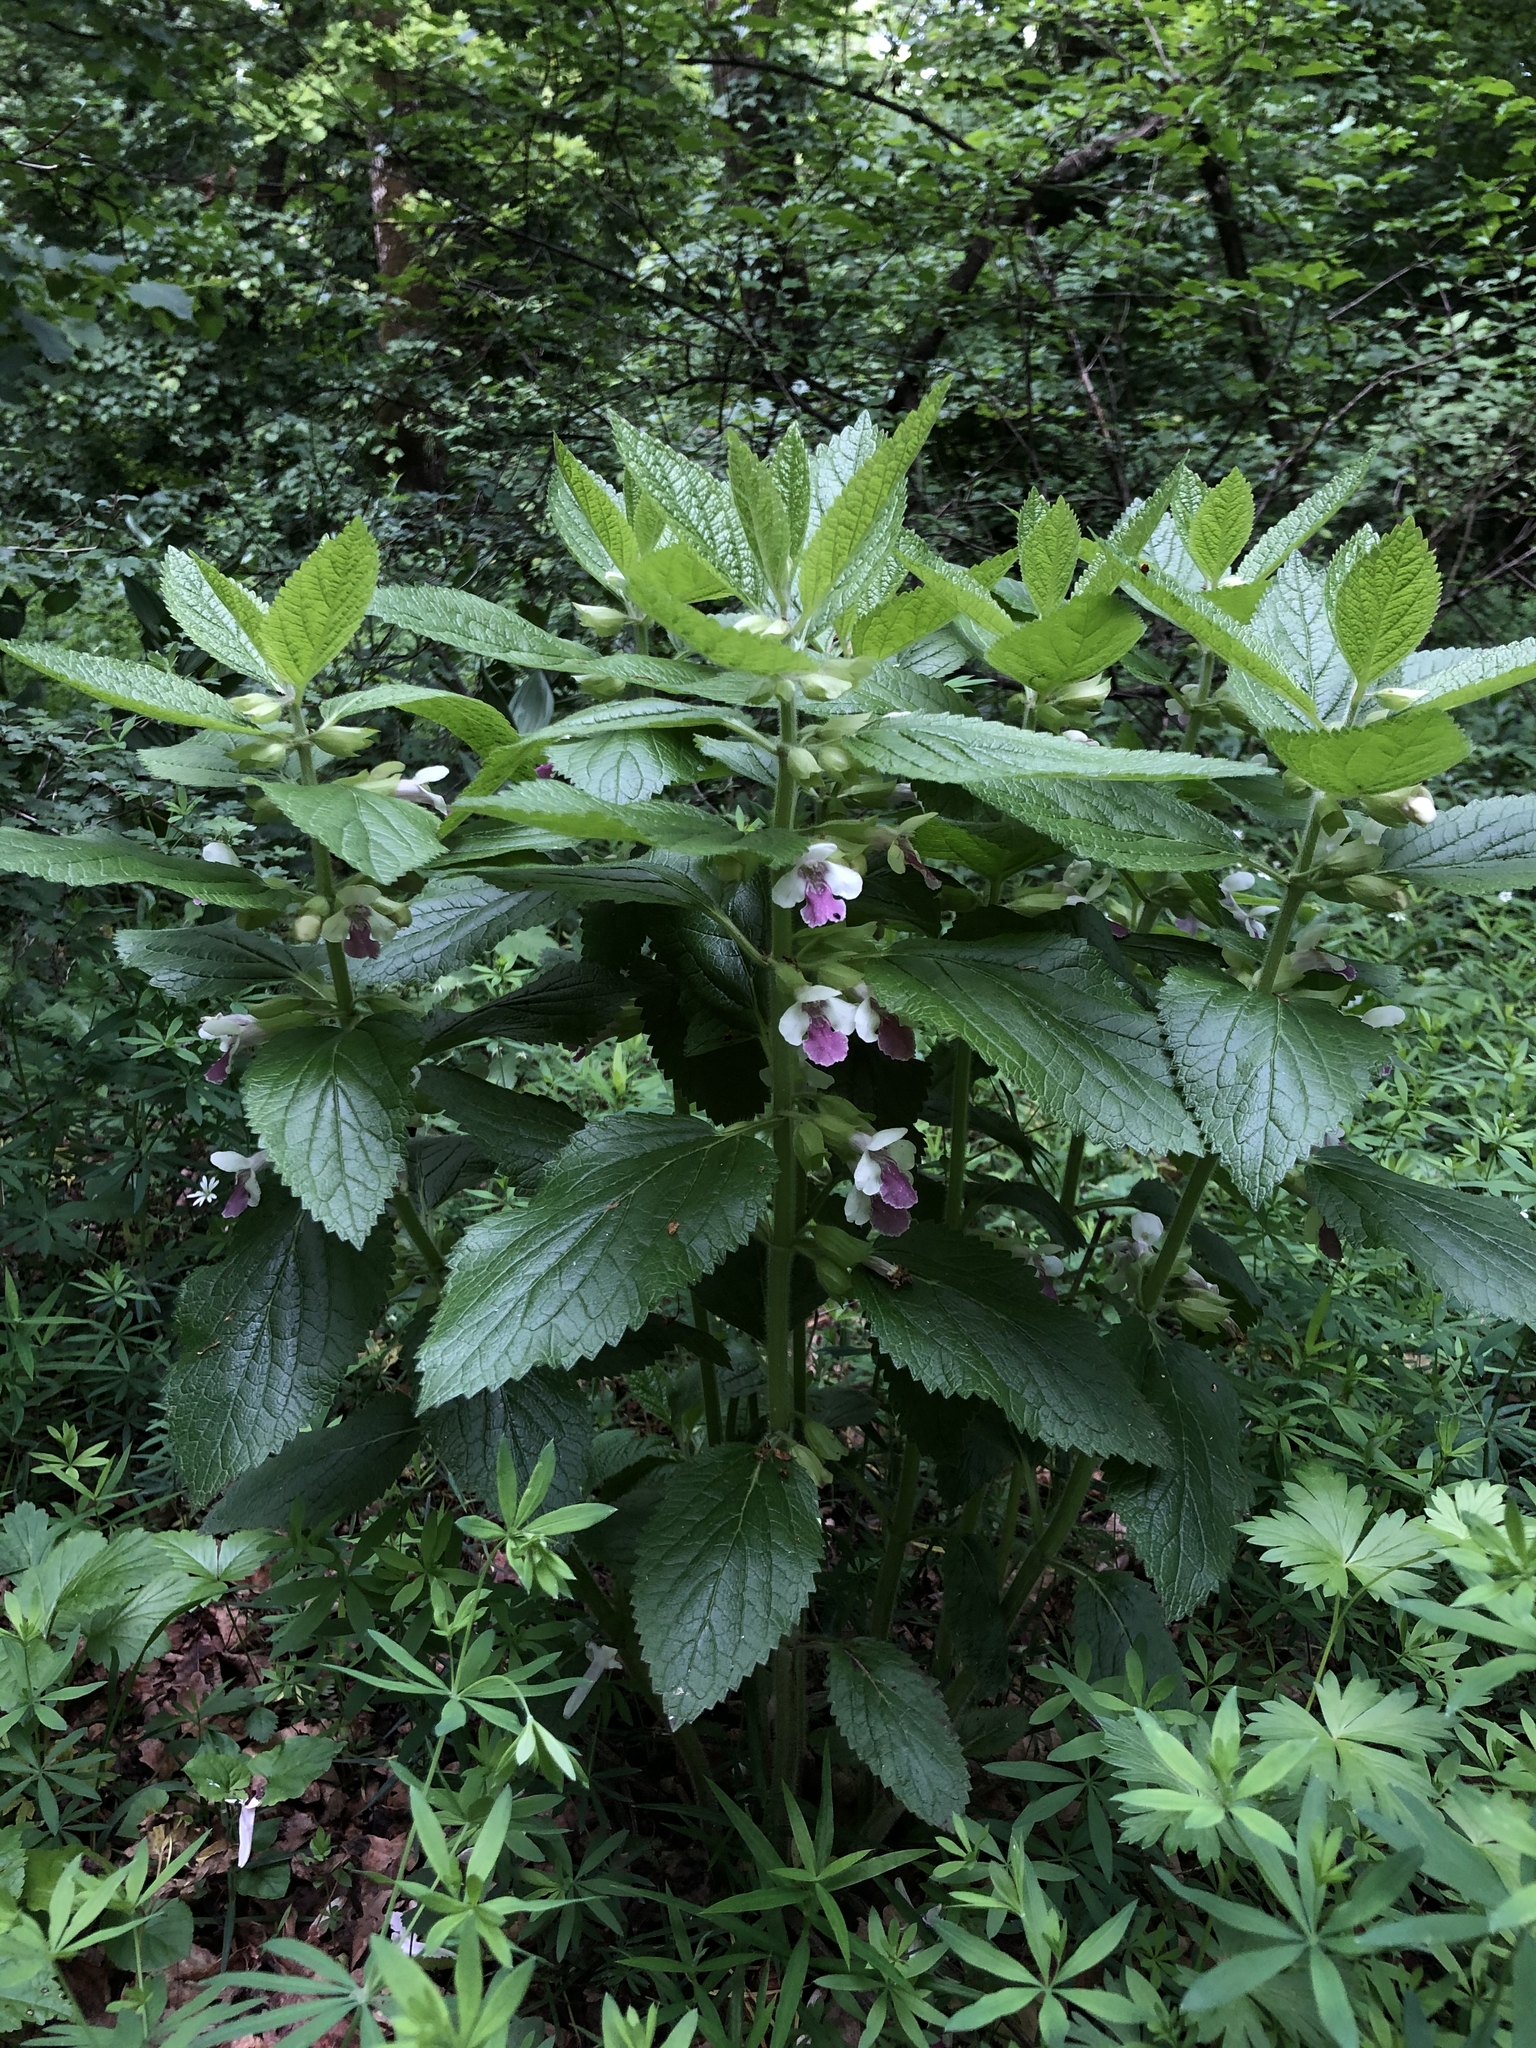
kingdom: Plantae
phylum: Tracheophyta
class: Magnoliopsida
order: Lamiales
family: Lamiaceae
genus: Melittis
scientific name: Melittis melissophyllum
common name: Bastard balm
